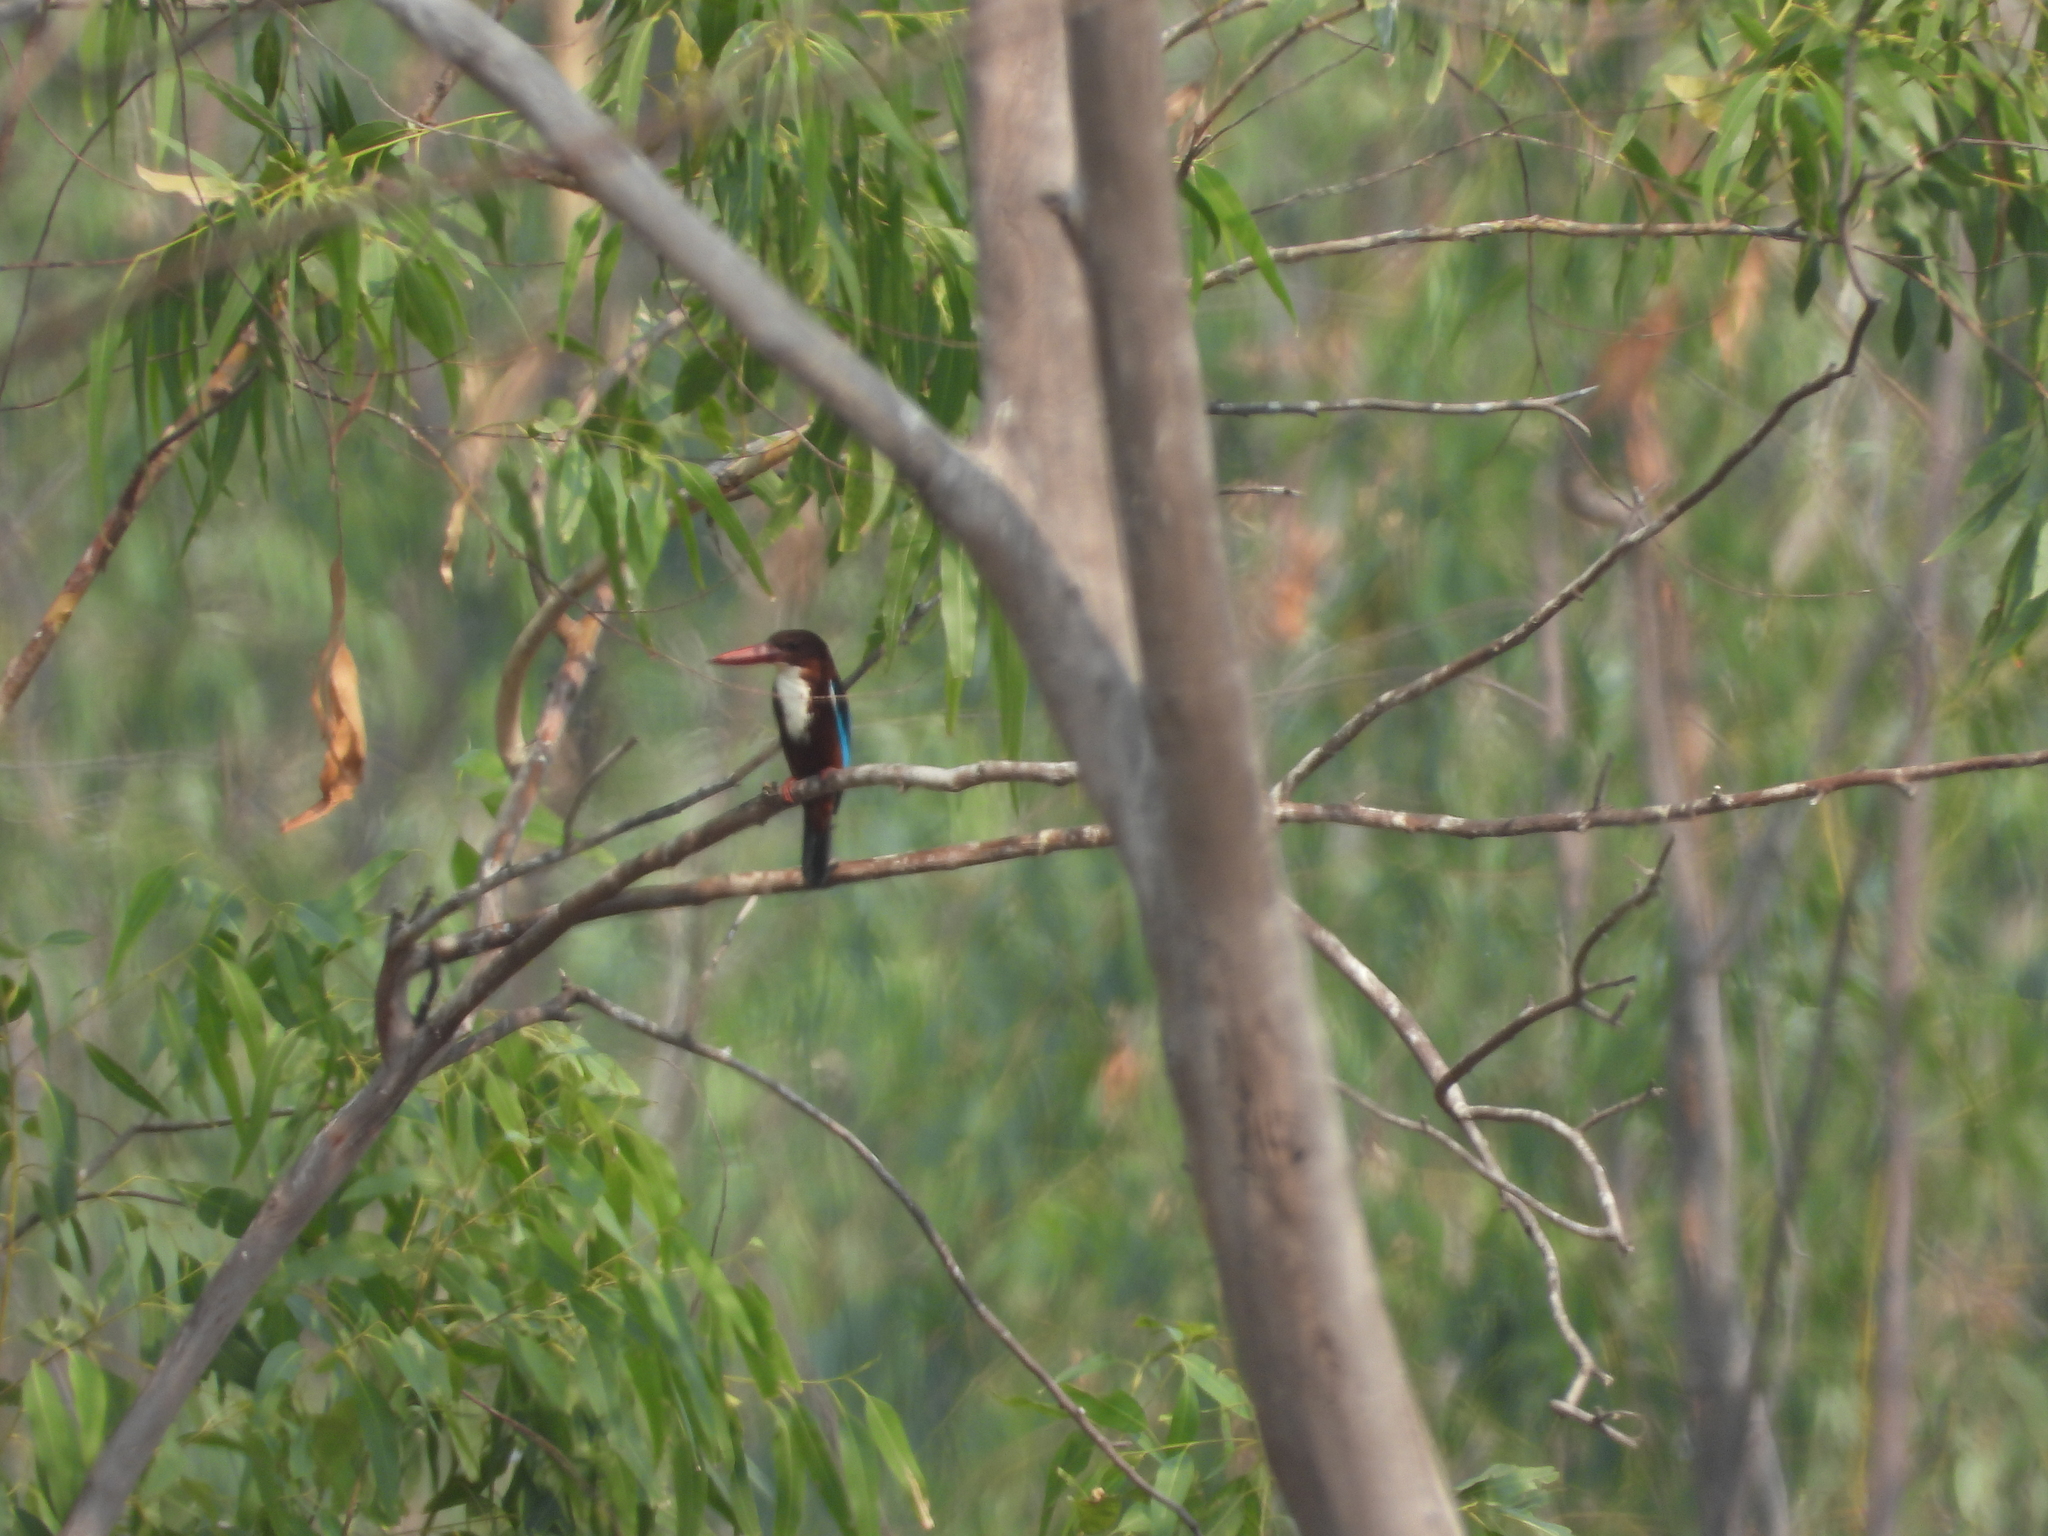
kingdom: Animalia
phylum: Chordata
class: Aves
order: Coraciiformes
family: Alcedinidae
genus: Halcyon
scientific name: Halcyon smyrnensis
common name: White-throated kingfisher
